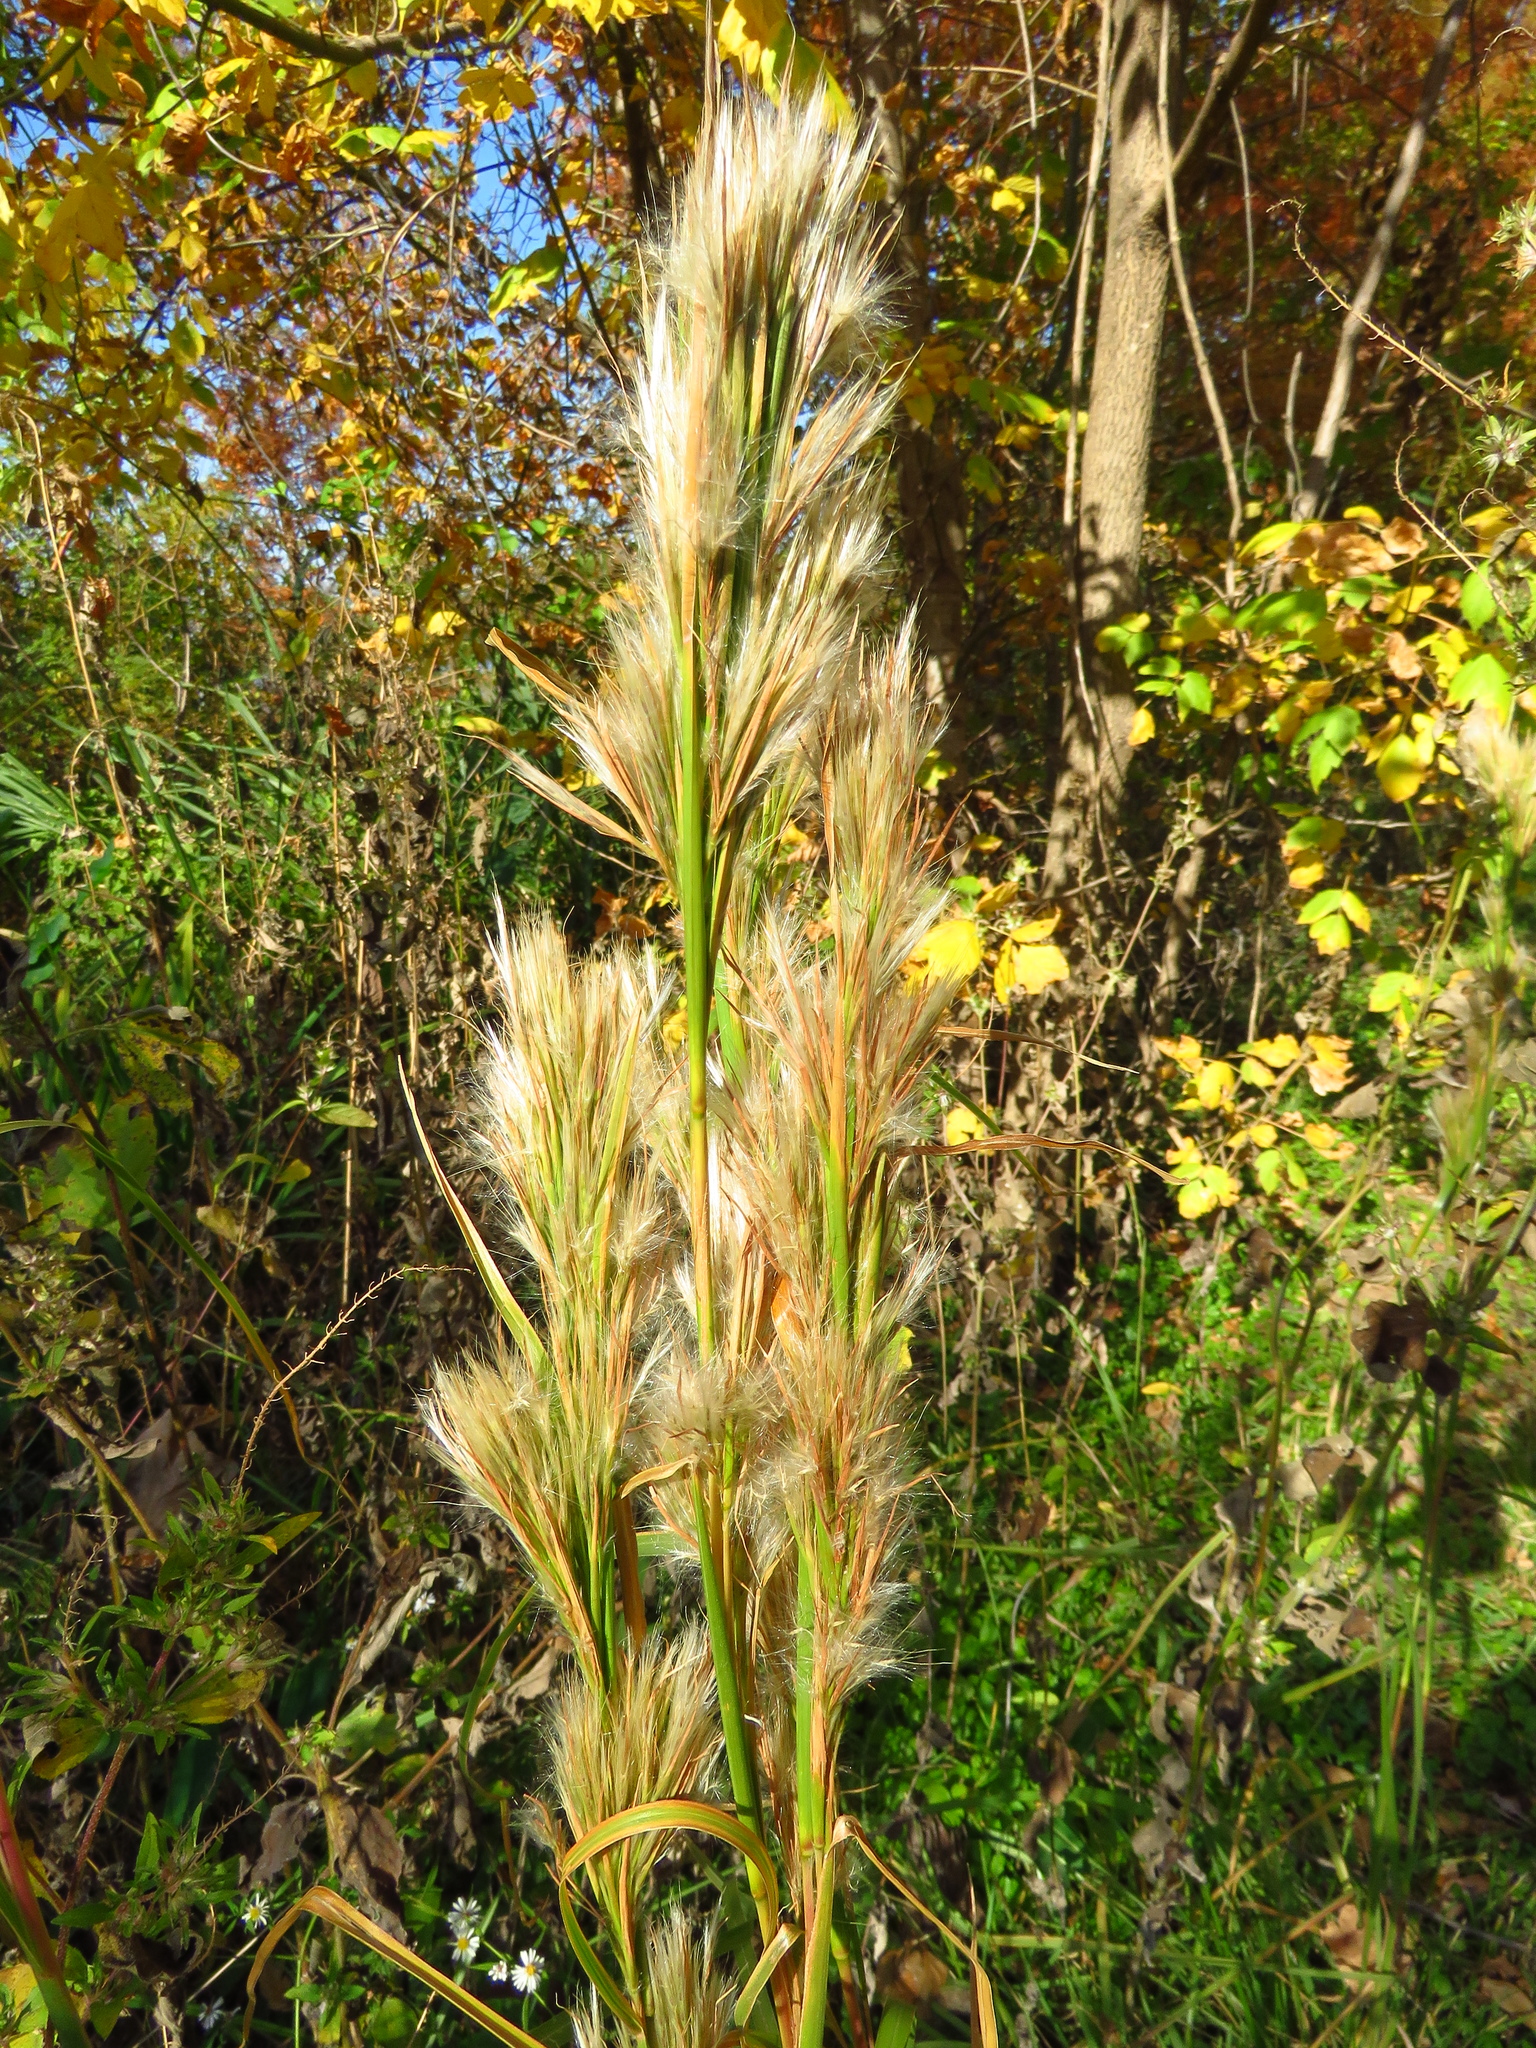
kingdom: Plantae
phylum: Tracheophyta
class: Liliopsida
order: Poales
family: Poaceae
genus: Andropogon
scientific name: Andropogon tenuispatheus
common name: Bushy bluestem
